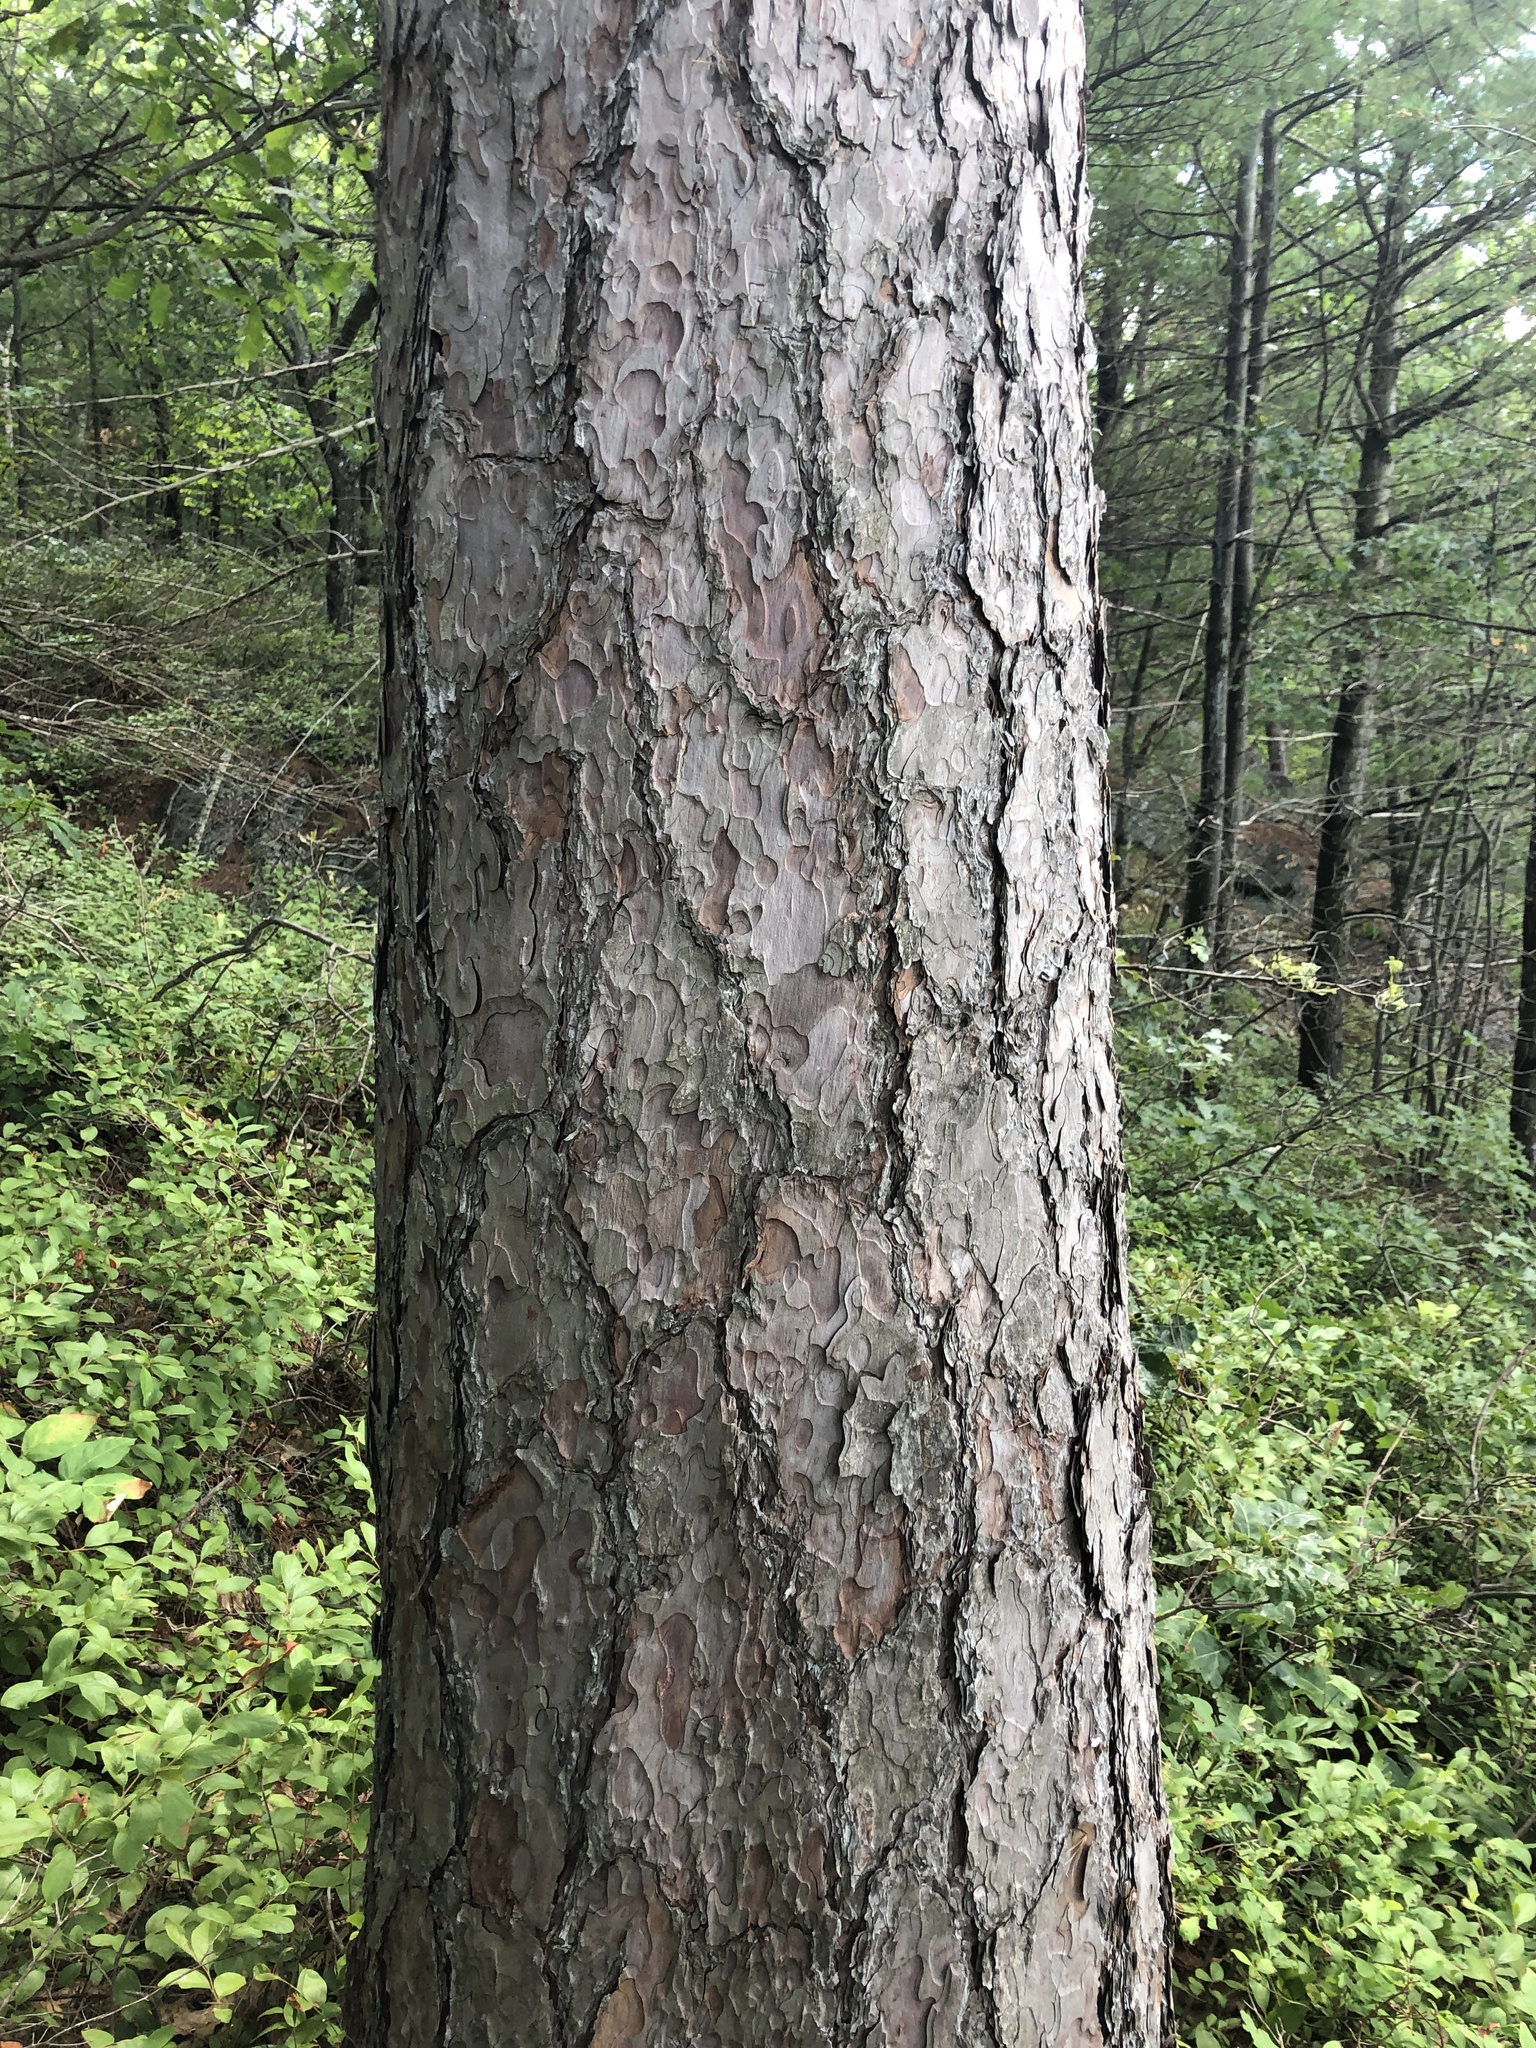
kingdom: Plantae
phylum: Tracheophyta
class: Pinopsida
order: Pinales
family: Pinaceae
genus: Pinus
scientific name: Pinus resinosa
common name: Norway pine
